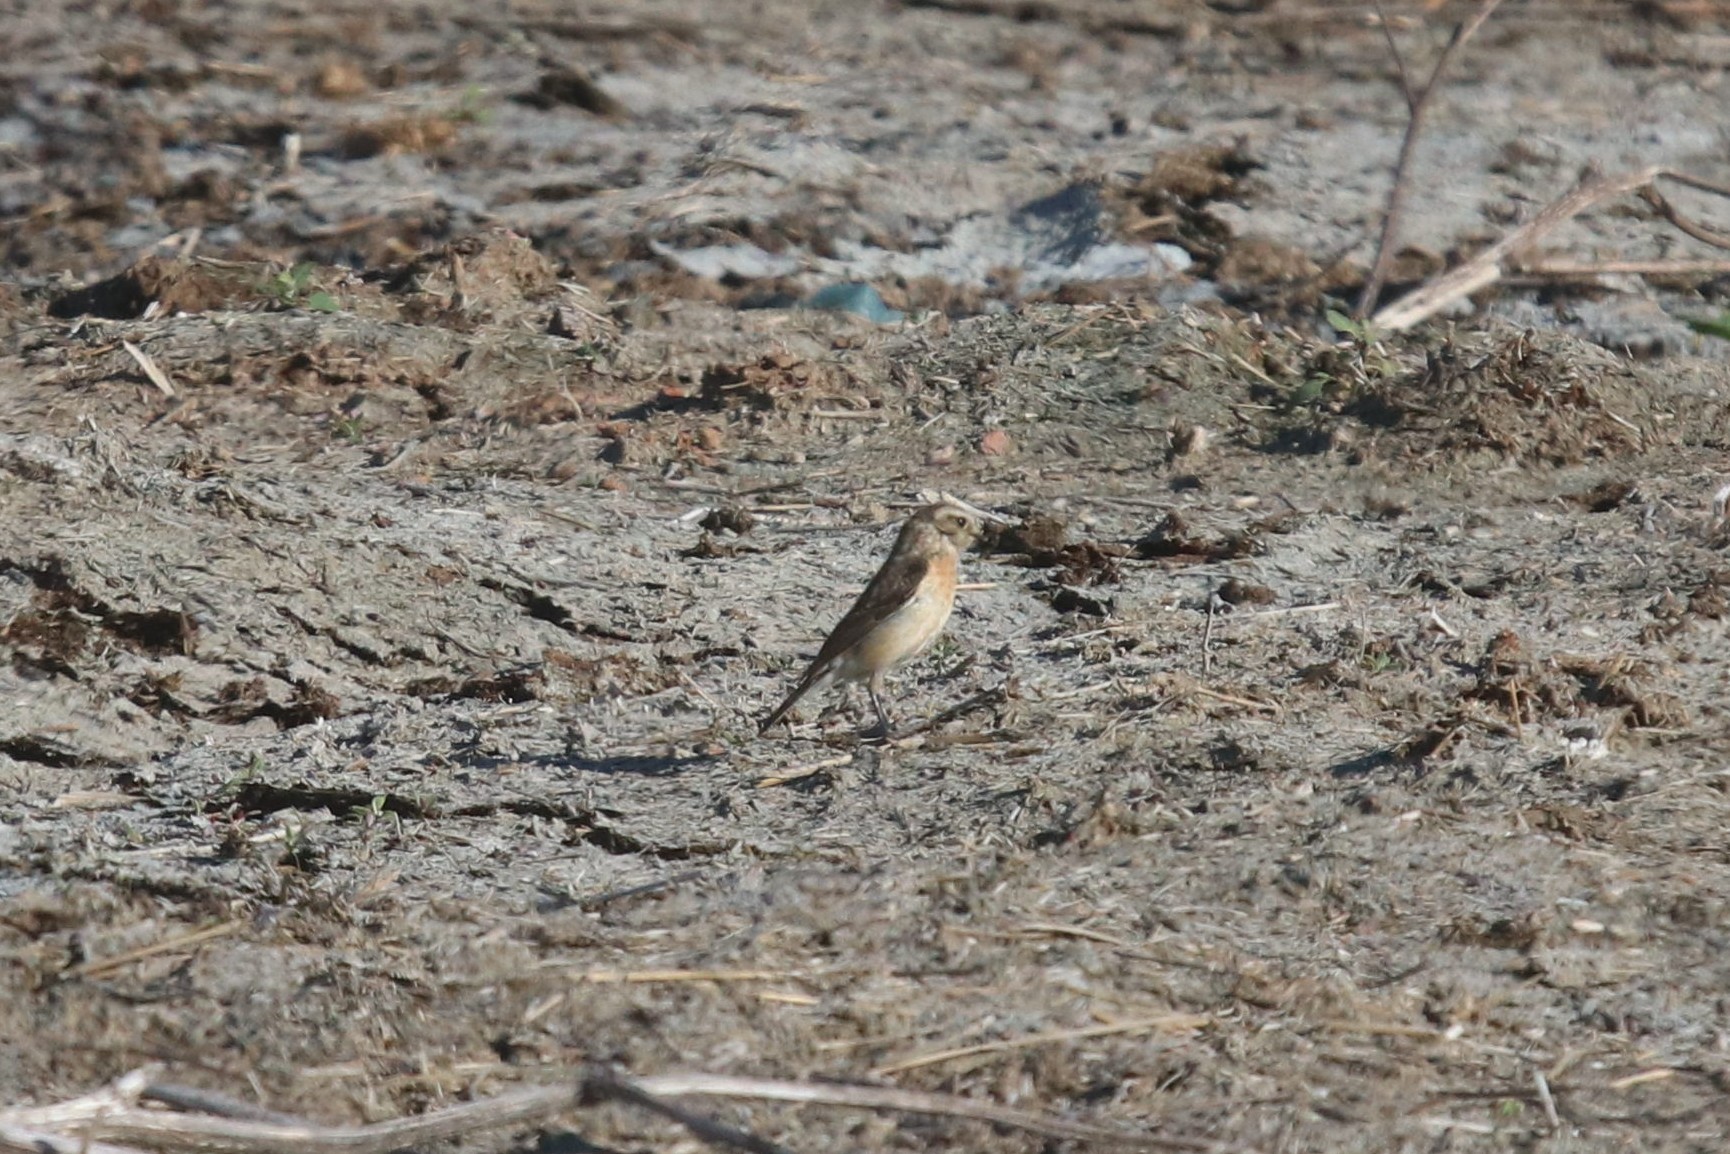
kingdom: Animalia
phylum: Chordata
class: Aves
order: Passeriformes
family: Muscicapidae
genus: Saxicola
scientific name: Saxicola rubetra
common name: Whinchat
